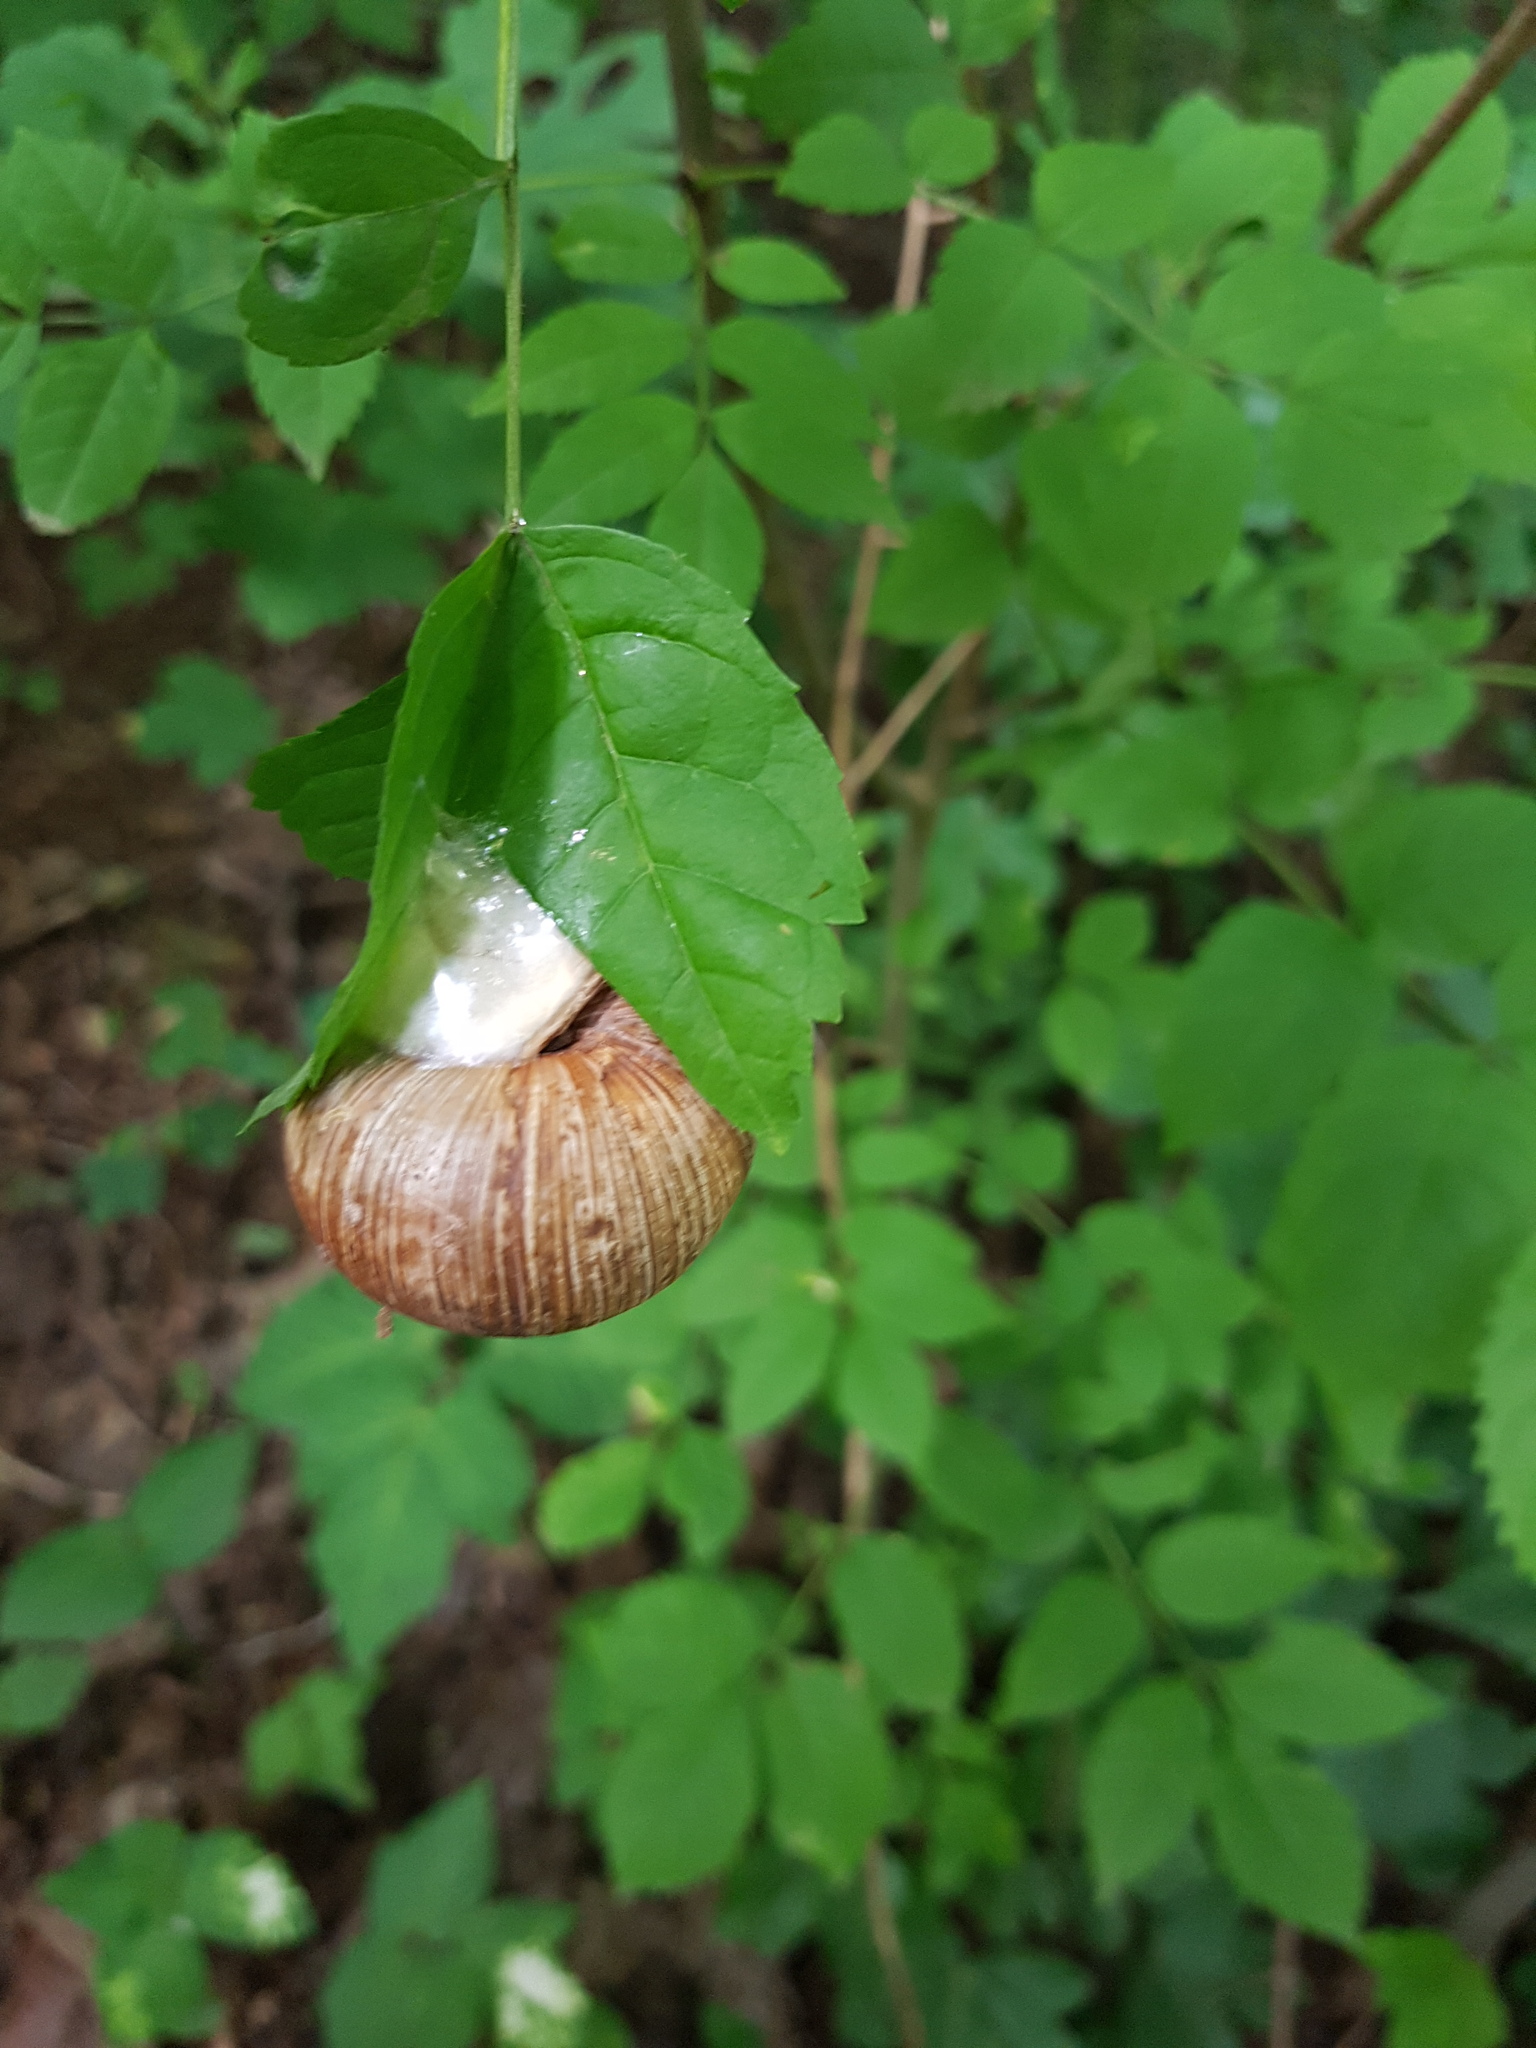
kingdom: Animalia
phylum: Mollusca
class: Gastropoda
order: Stylommatophora
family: Helicidae
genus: Helix
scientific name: Helix pomatia
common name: Roman snail
